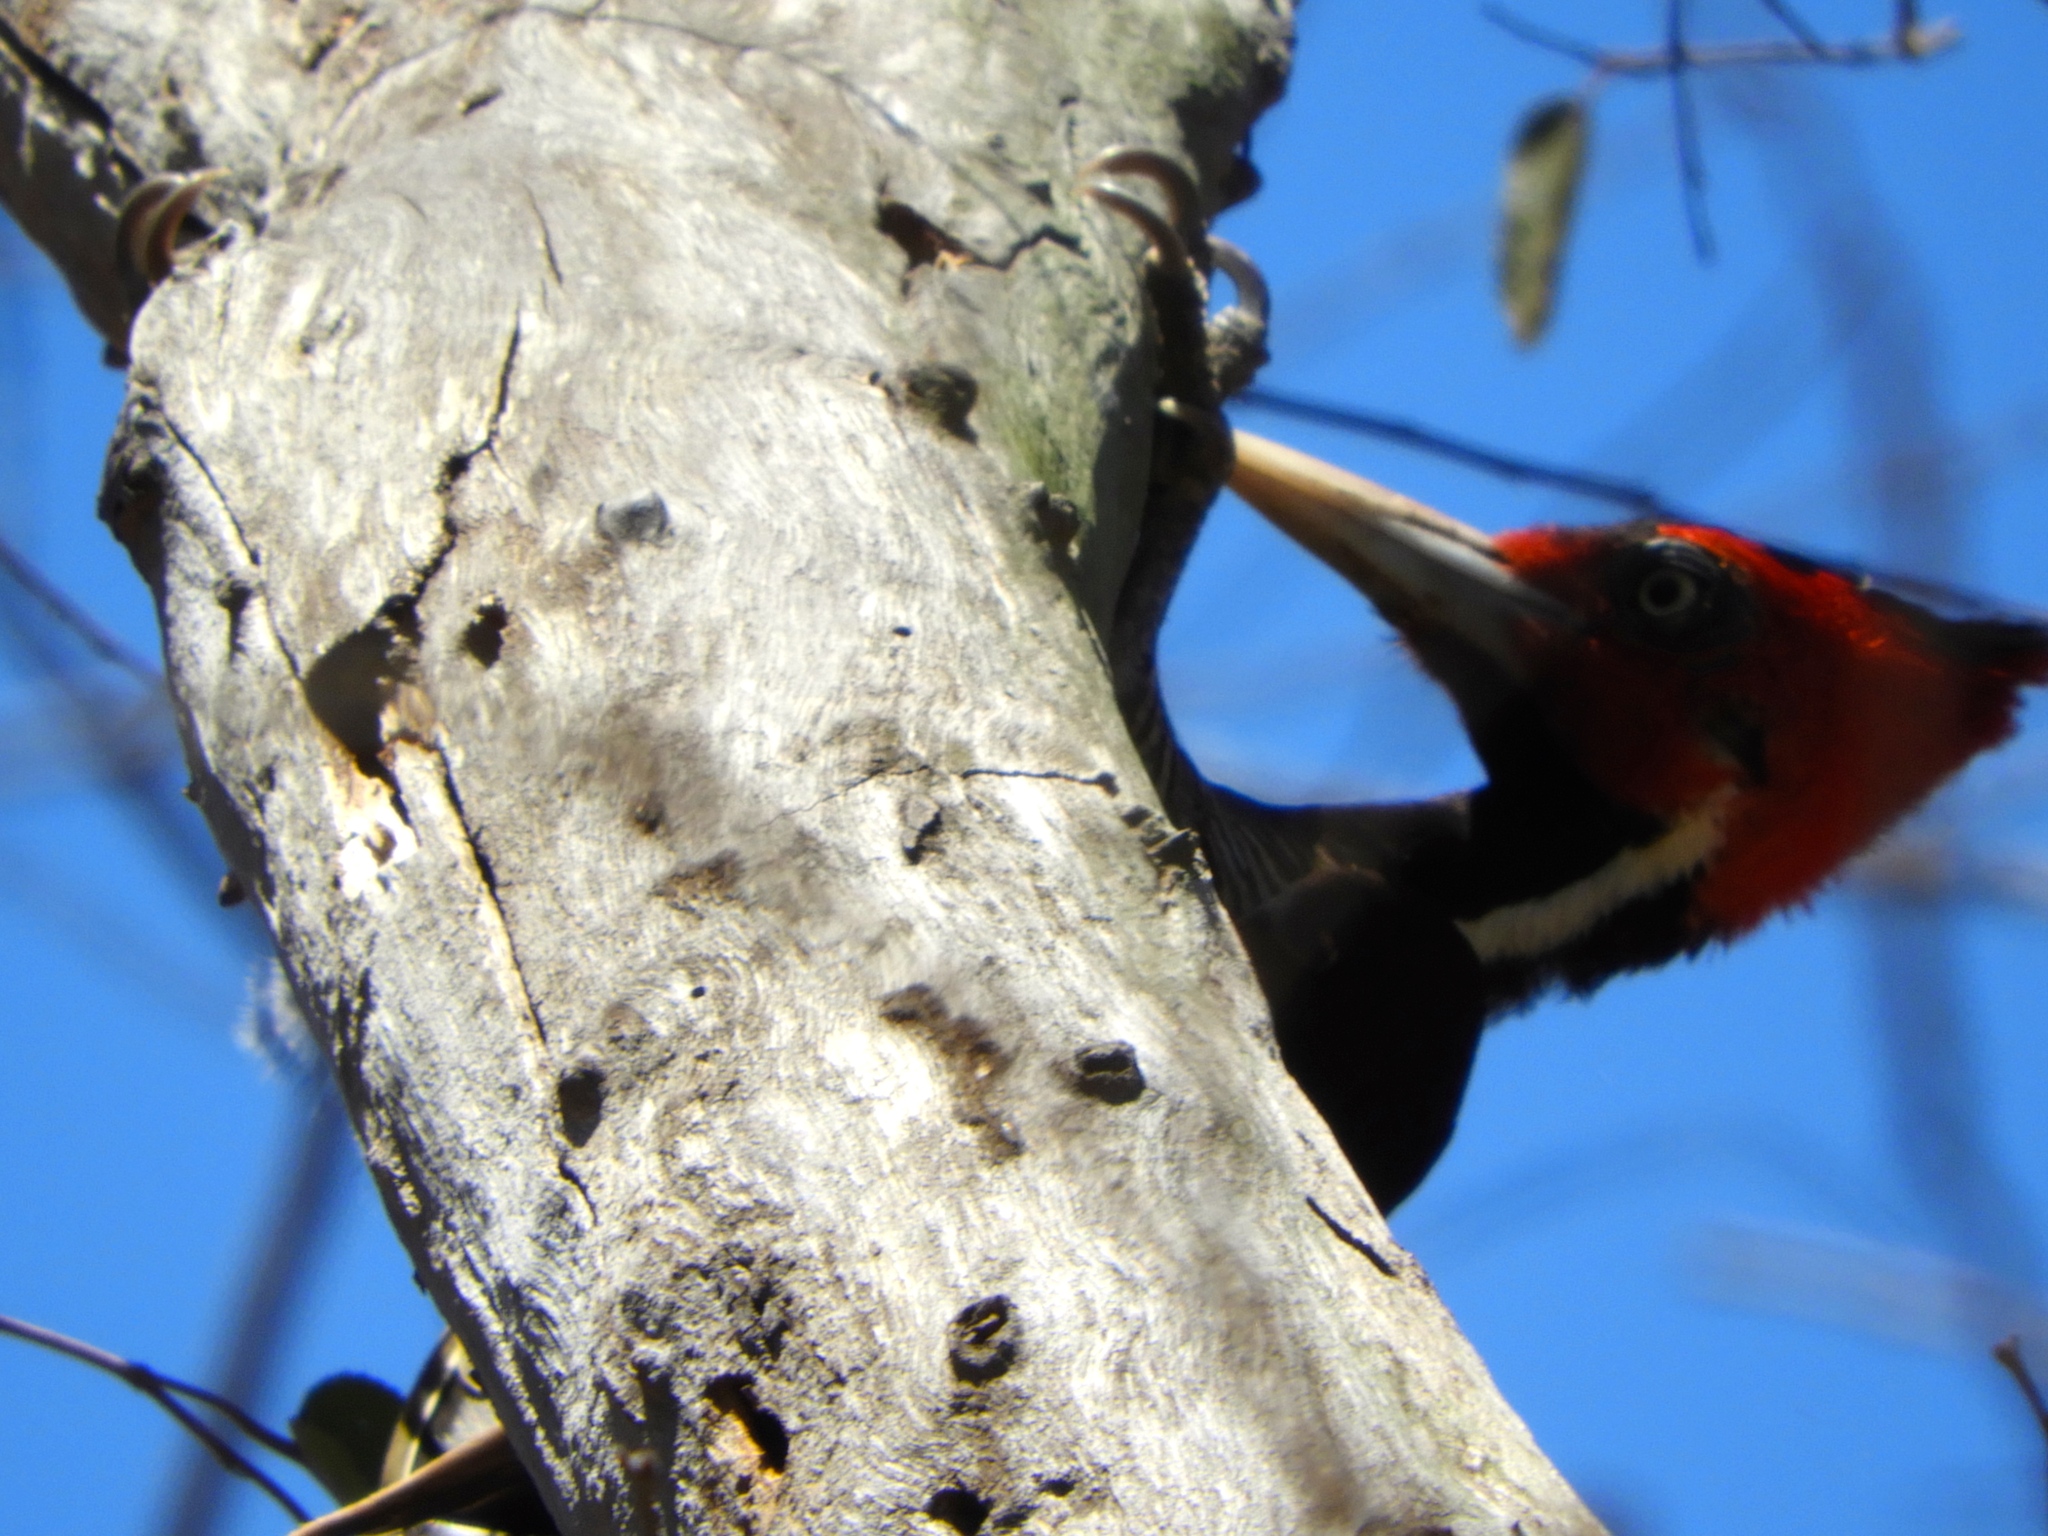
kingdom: Animalia
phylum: Chordata
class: Aves
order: Piciformes
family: Picidae
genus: Campephilus
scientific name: Campephilus guatemalensis
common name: Pale-billed woodpecker
